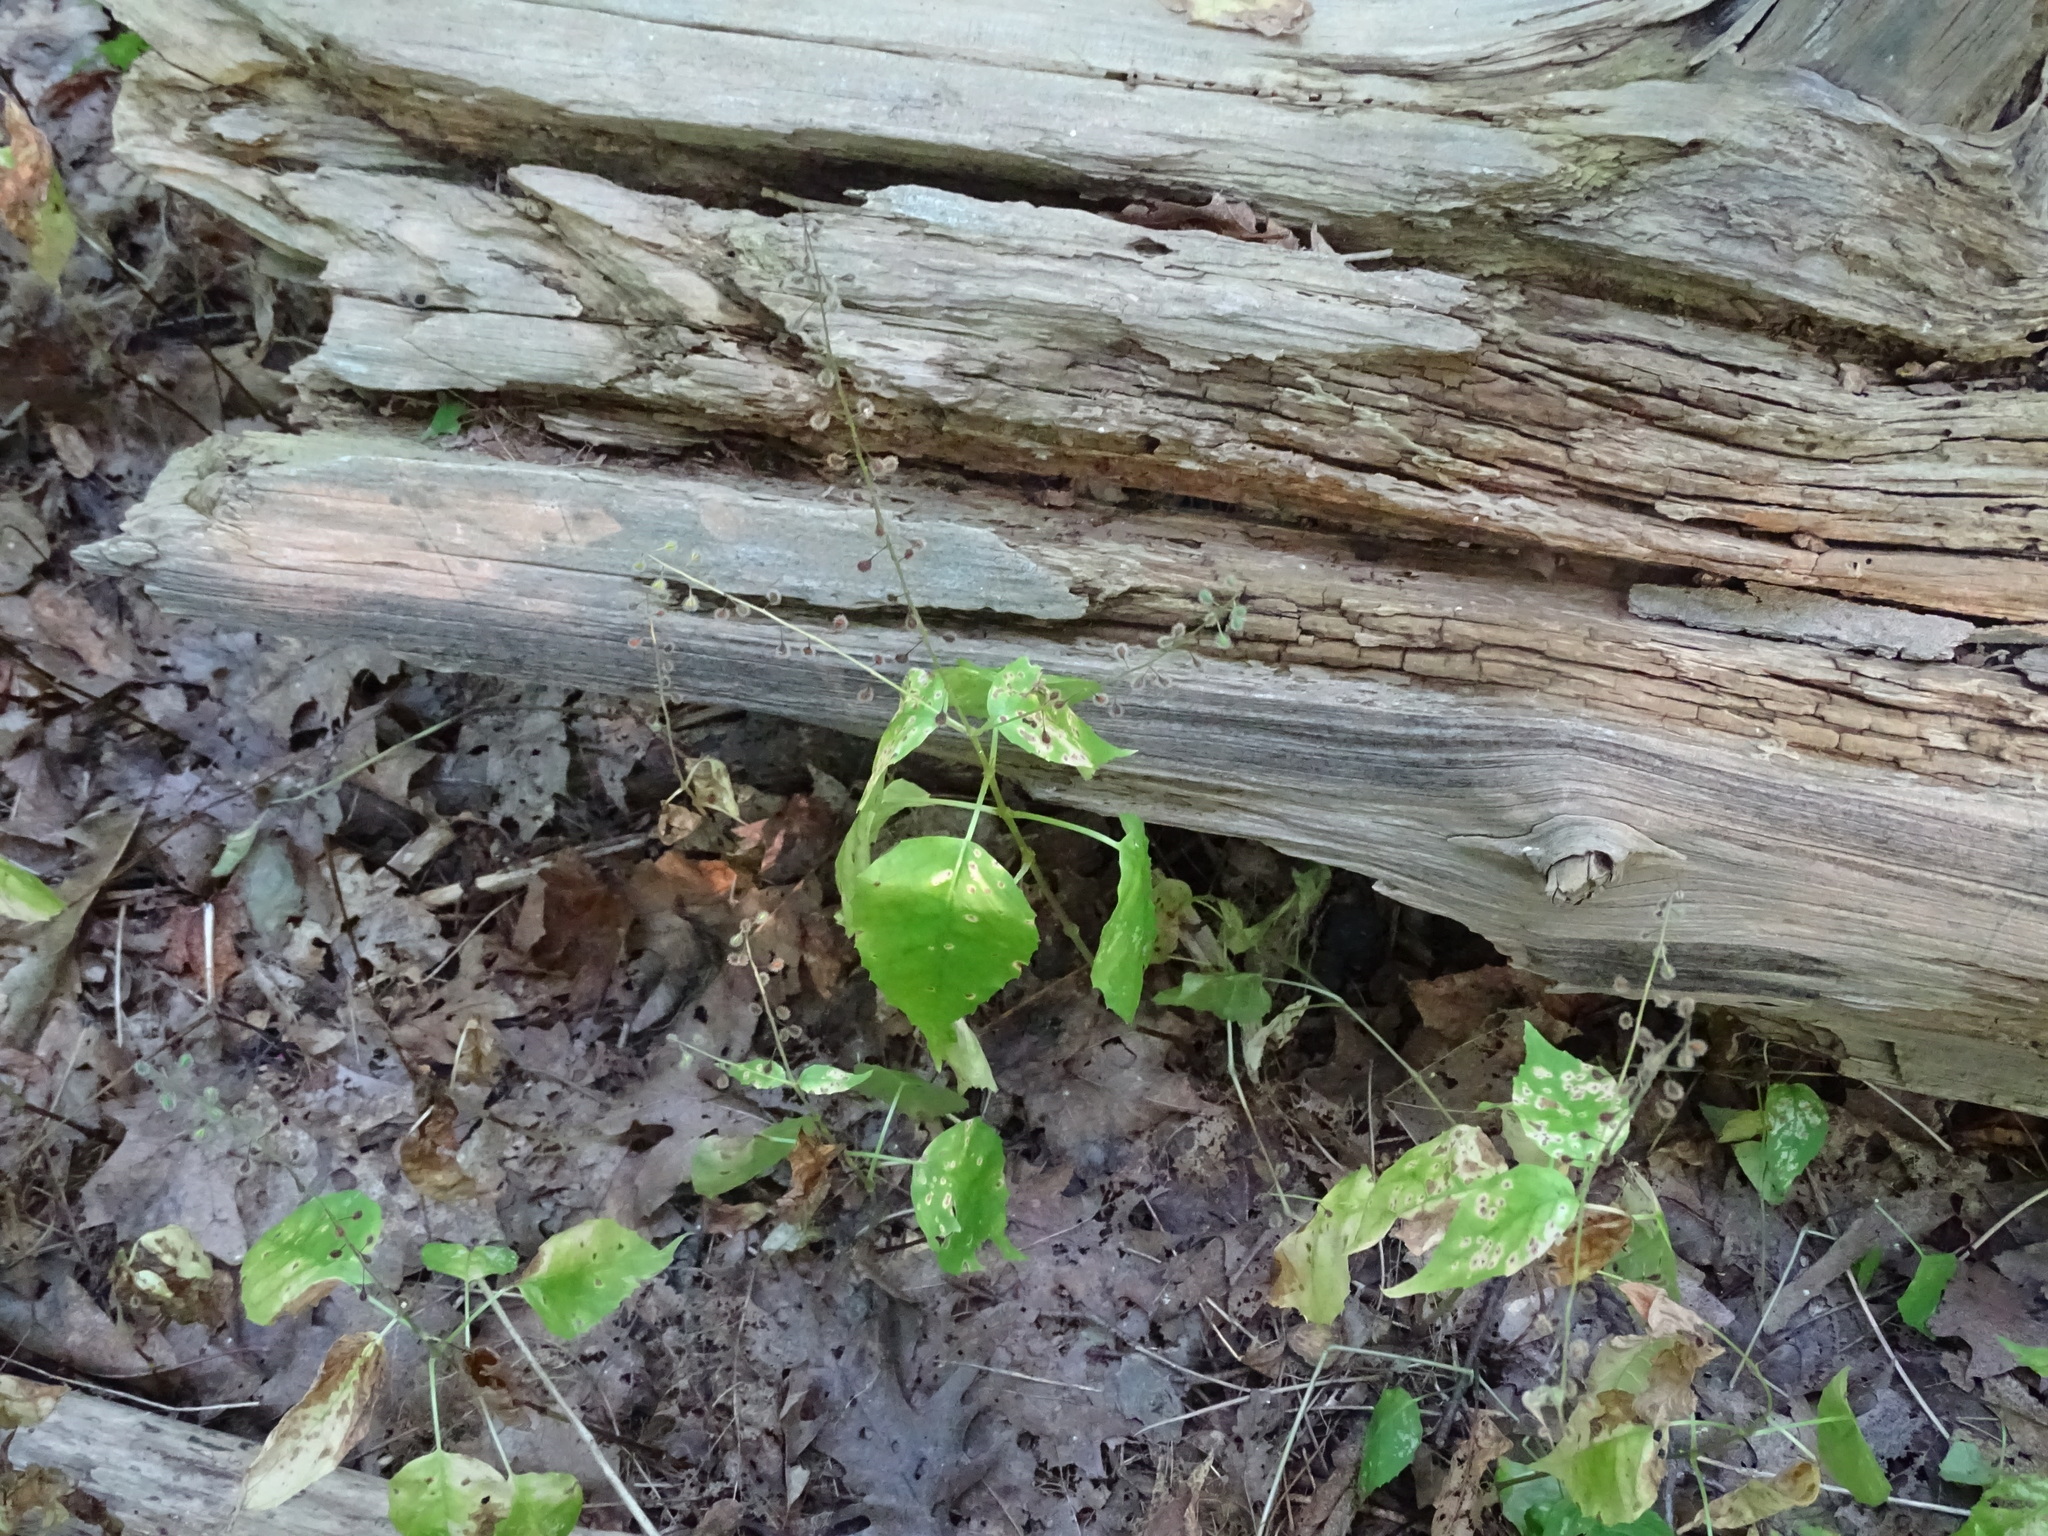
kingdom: Plantae
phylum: Tracheophyta
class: Magnoliopsida
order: Myrtales
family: Onagraceae
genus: Circaea
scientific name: Circaea canadensis
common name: Broad-leaved enchanter's nightshade
